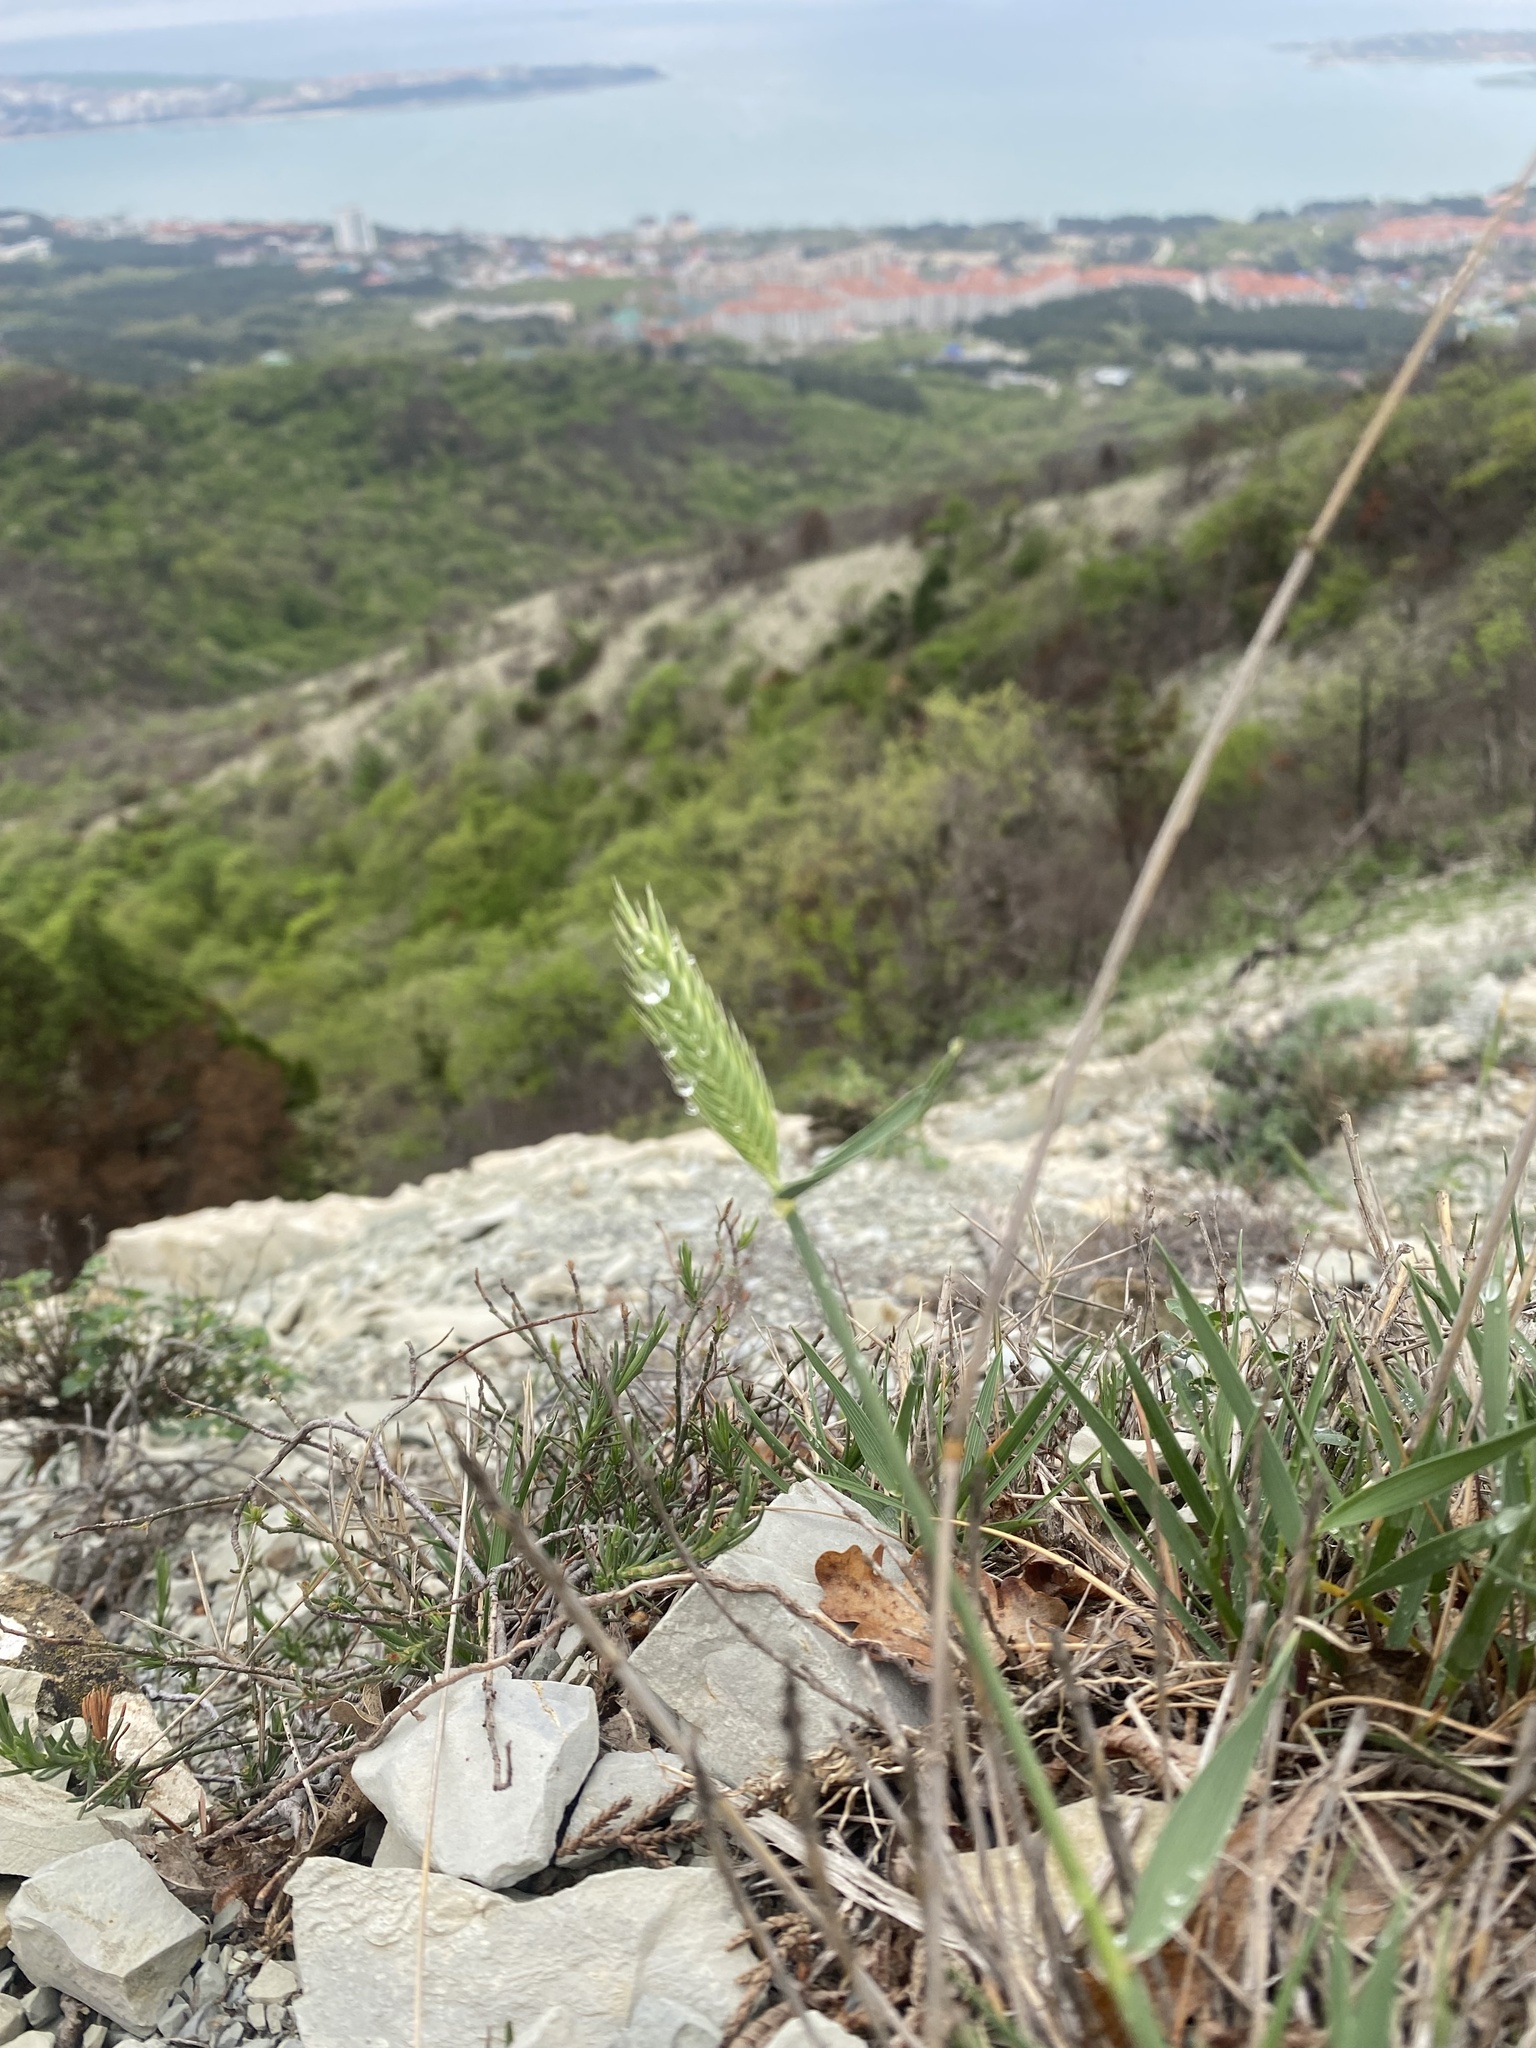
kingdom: Plantae
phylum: Tracheophyta
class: Liliopsida
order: Poales
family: Poaceae
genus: Agropyron
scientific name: Agropyron cristatum
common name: Crested wheatgrass
